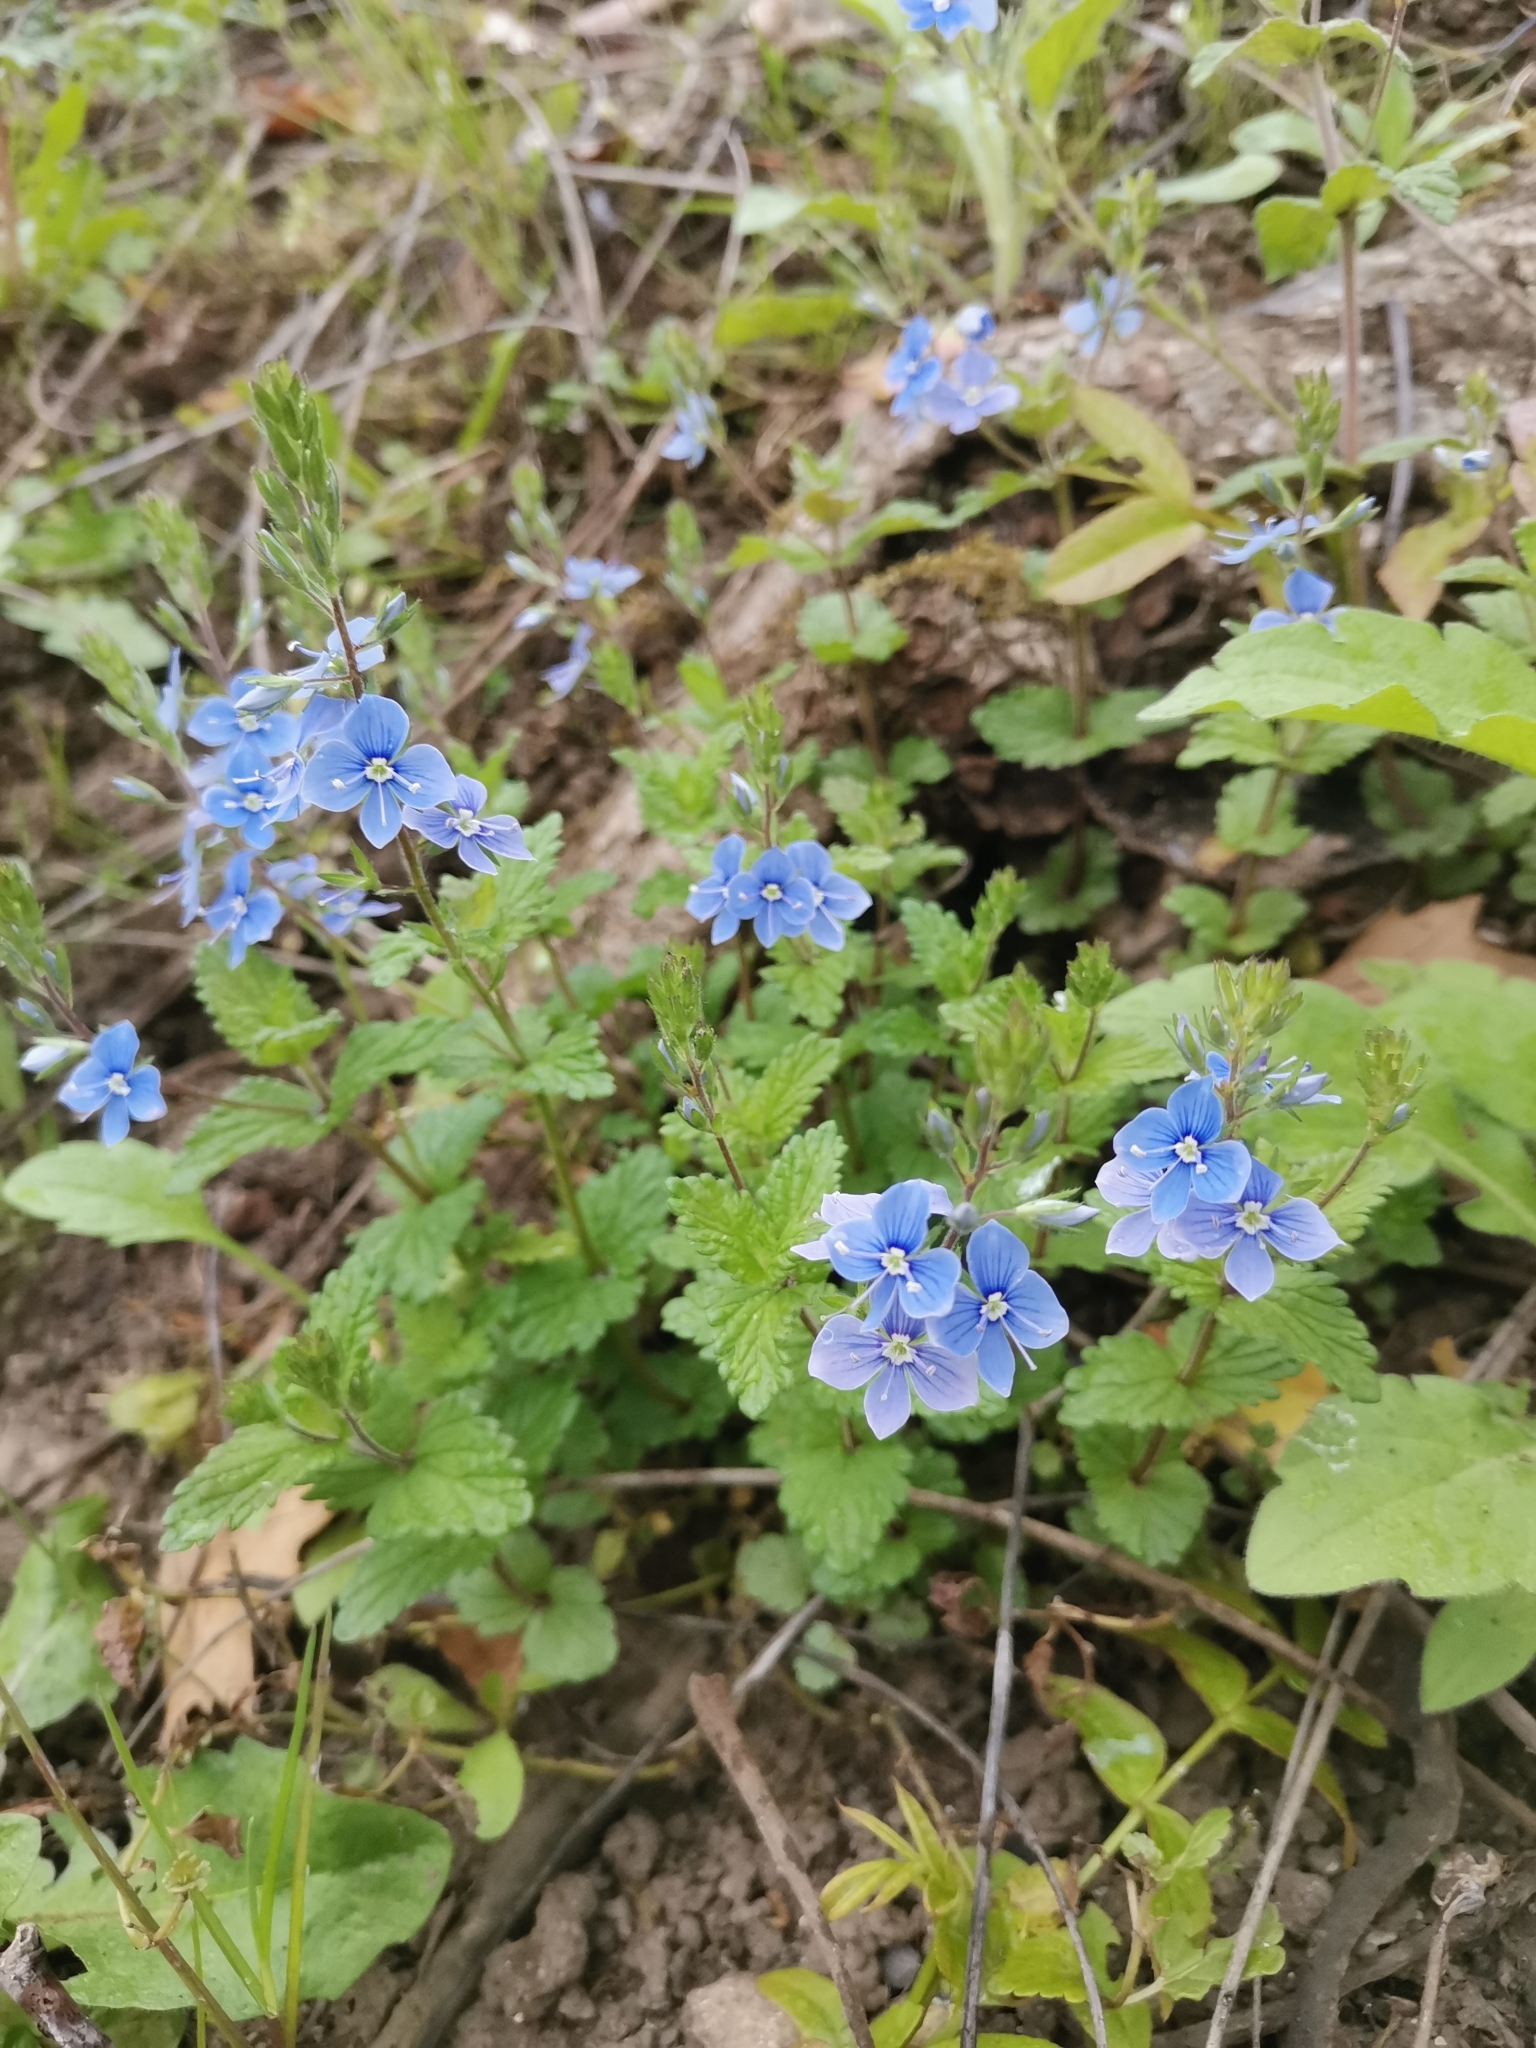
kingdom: Plantae
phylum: Tracheophyta
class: Magnoliopsida
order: Lamiales
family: Plantaginaceae
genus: Veronica
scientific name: Veronica chamaedrys
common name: Germander speedwell
